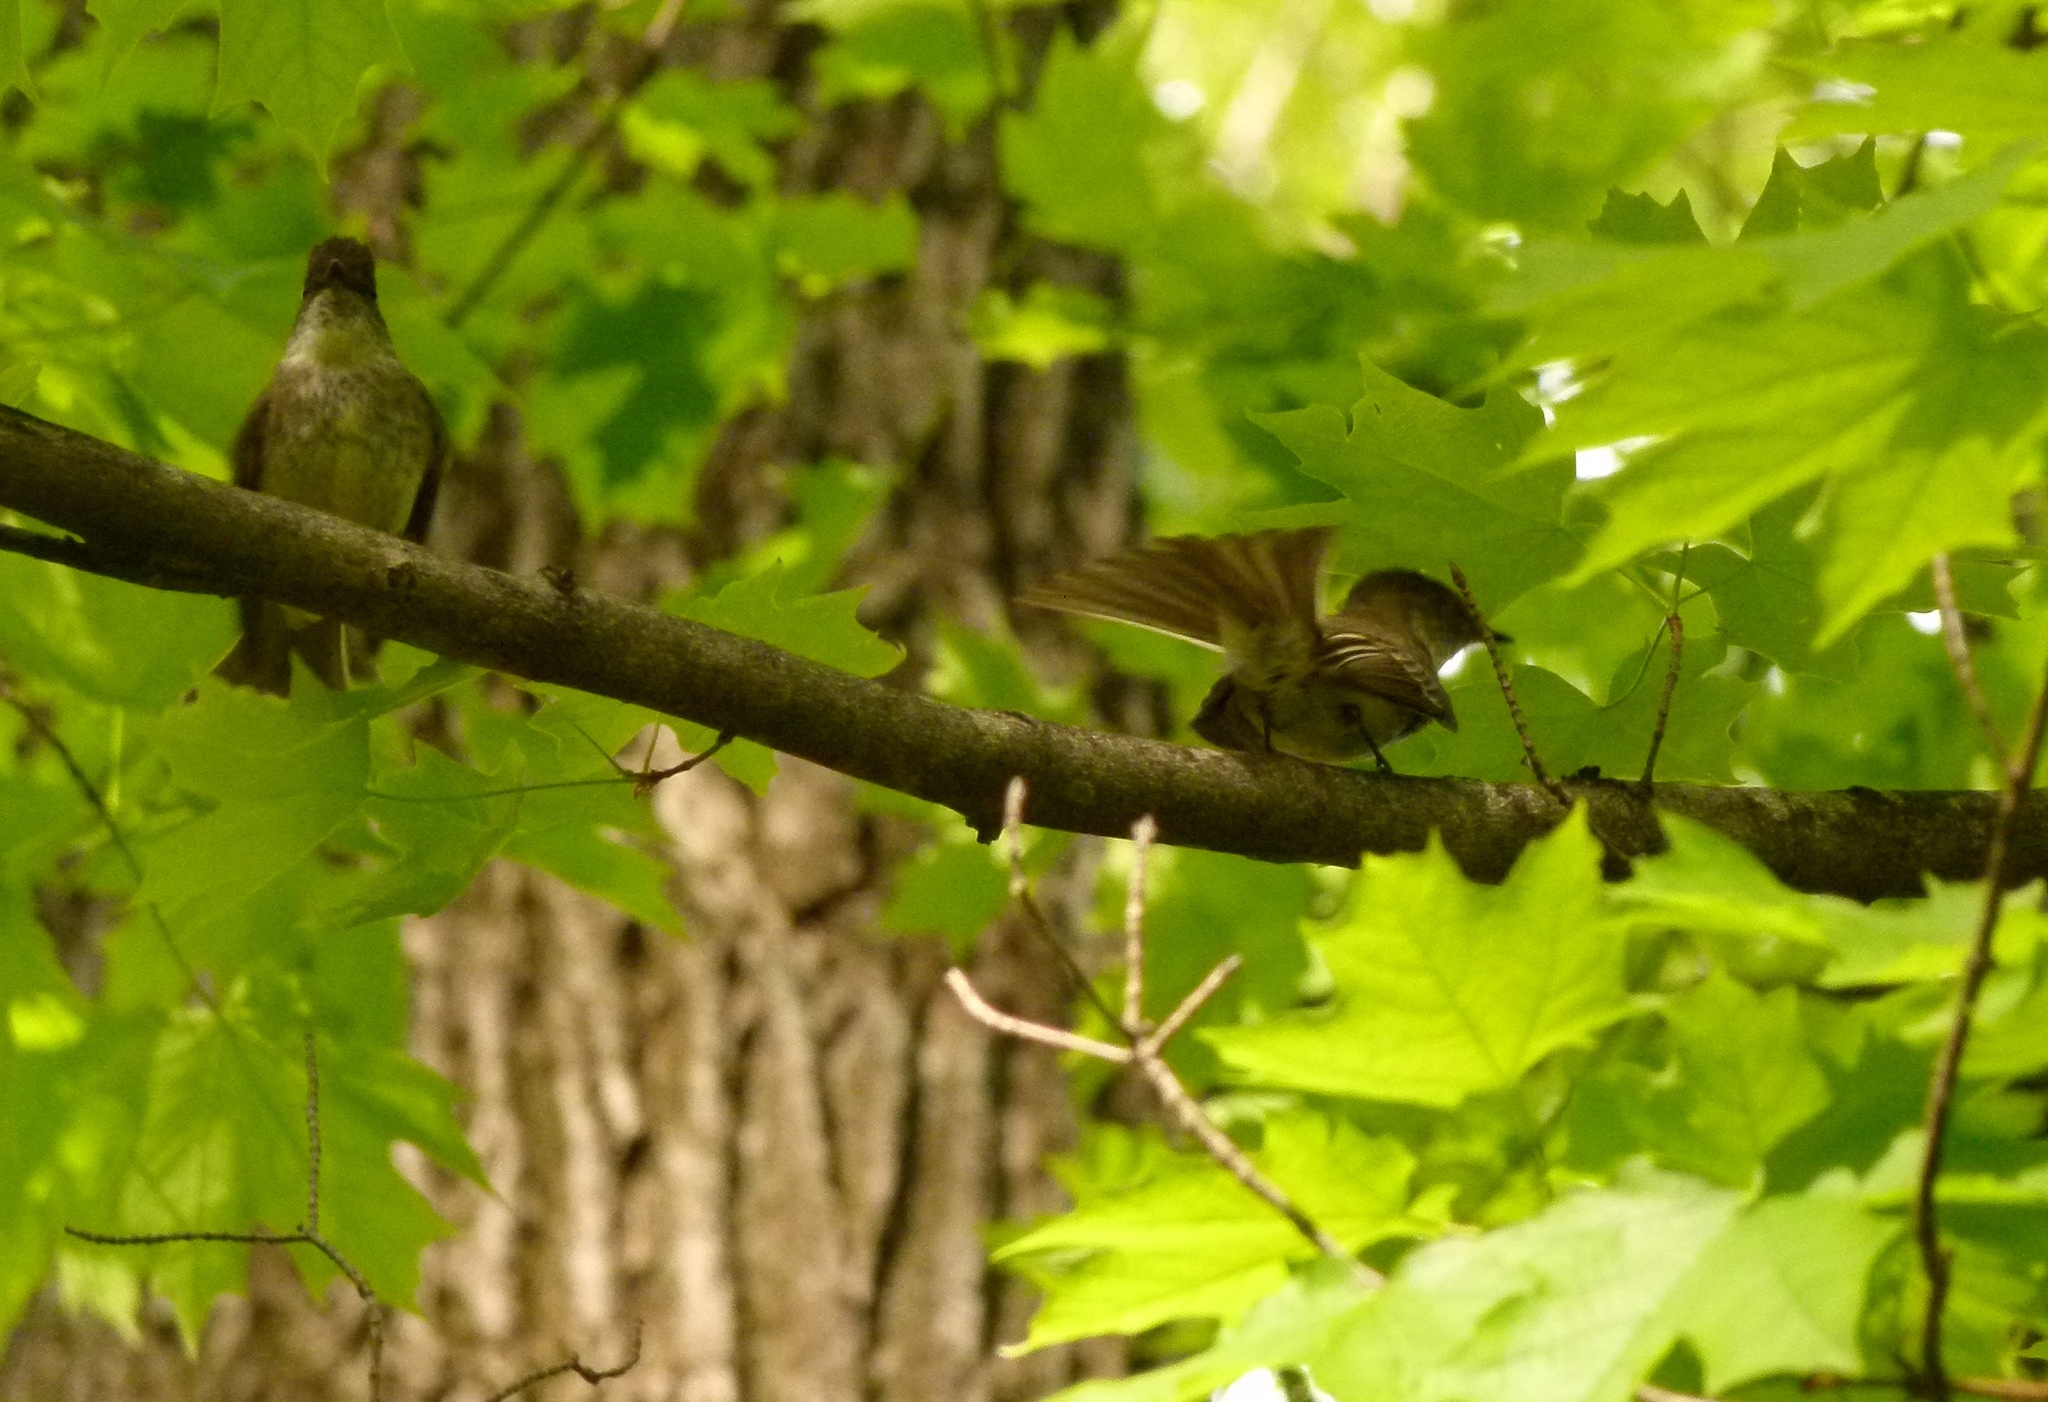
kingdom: Animalia
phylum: Chordata
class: Aves
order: Passeriformes
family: Tyrannidae
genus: Contopus
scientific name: Contopus virens
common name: Eastern wood-pewee
